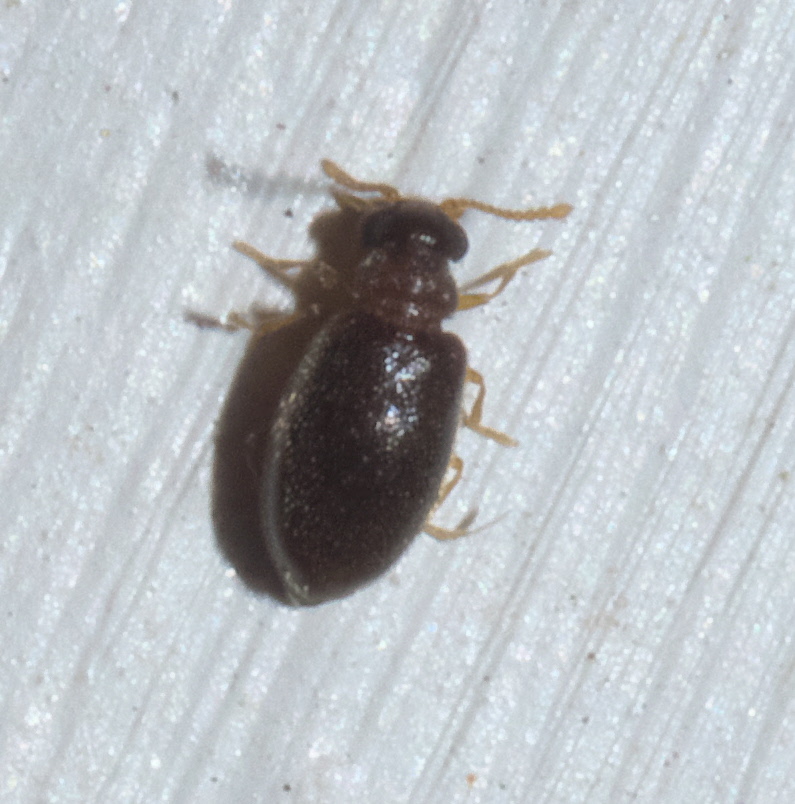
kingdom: Animalia
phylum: Arthropoda
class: Insecta
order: Coleoptera
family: Aderidae
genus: Cnopus
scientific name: Cnopus impressus
